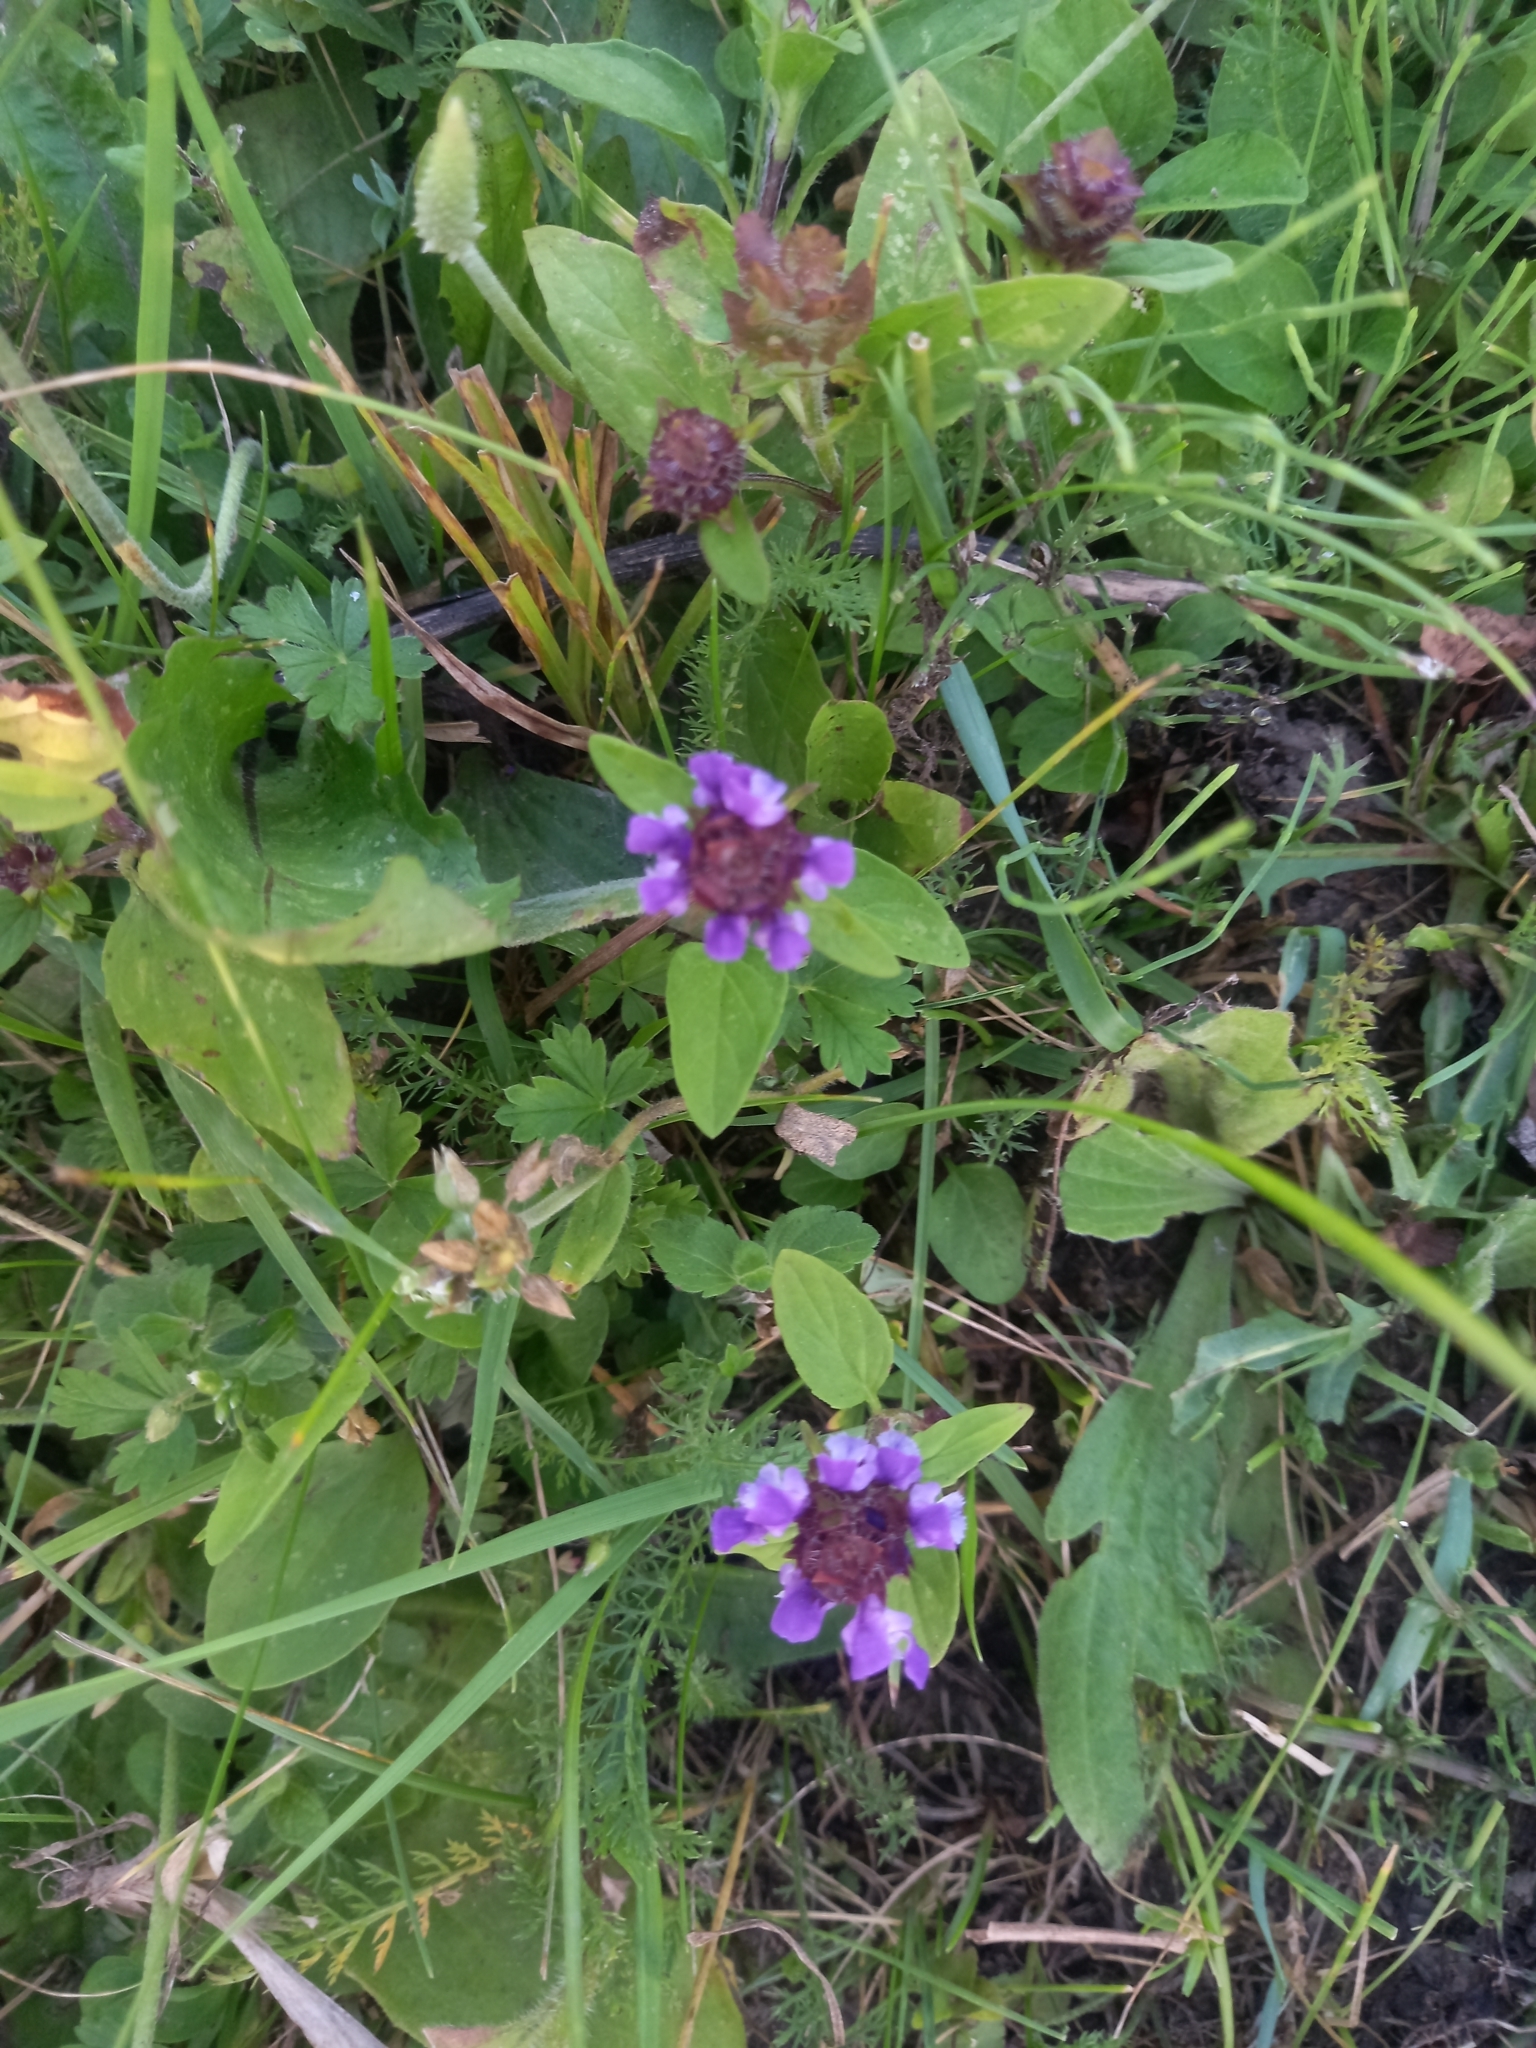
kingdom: Plantae
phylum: Tracheophyta
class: Magnoliopsida
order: Lamiales
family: Lamiaceae
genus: Prunella
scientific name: Prunella vulgaris
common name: Heal-all
